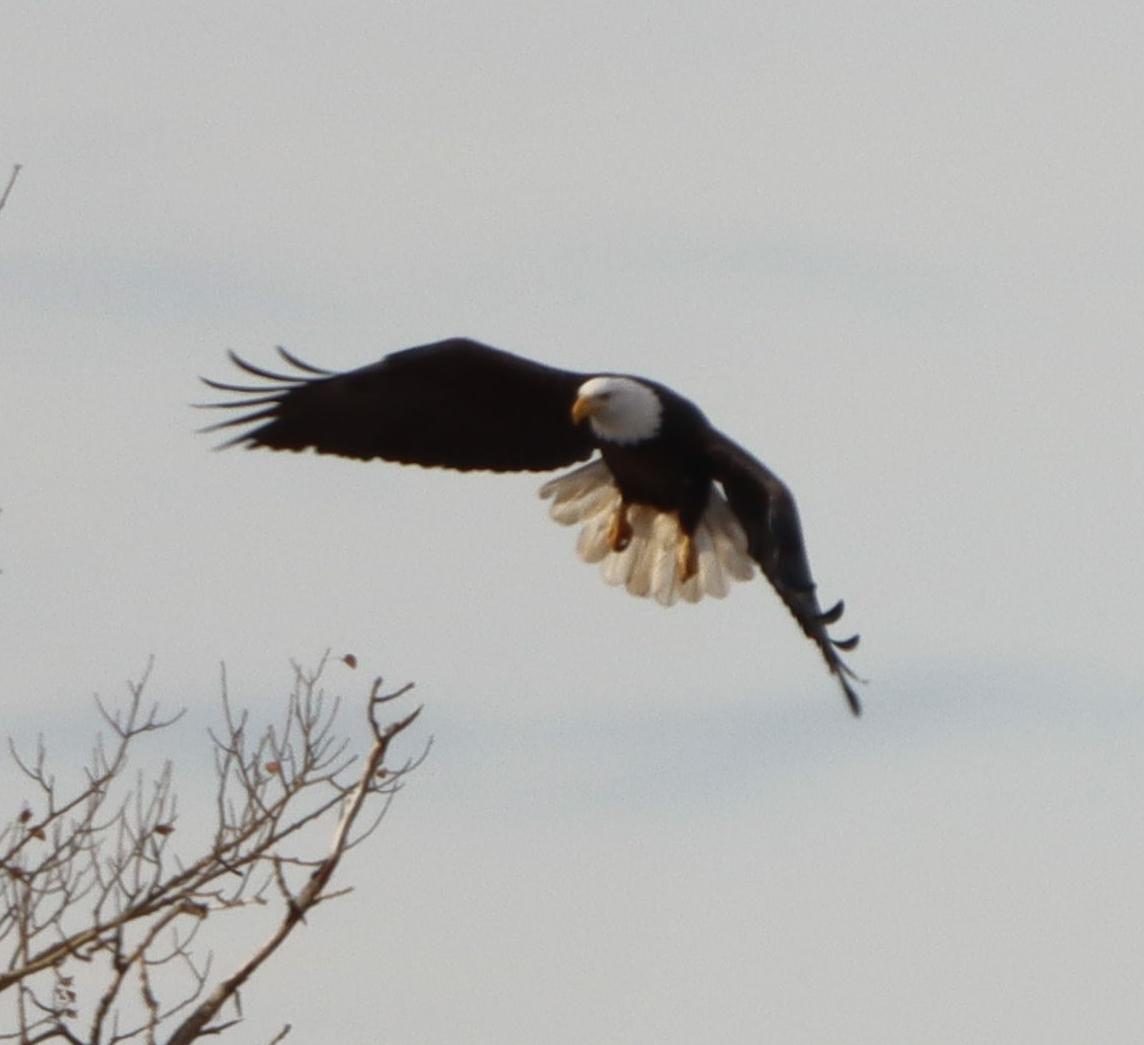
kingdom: Animalia
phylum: Chordata
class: Aves
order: Accipitriformes
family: Accipitridae
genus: Haliaeetus
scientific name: Haliaeetus leucocephalus
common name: Bald eagle
